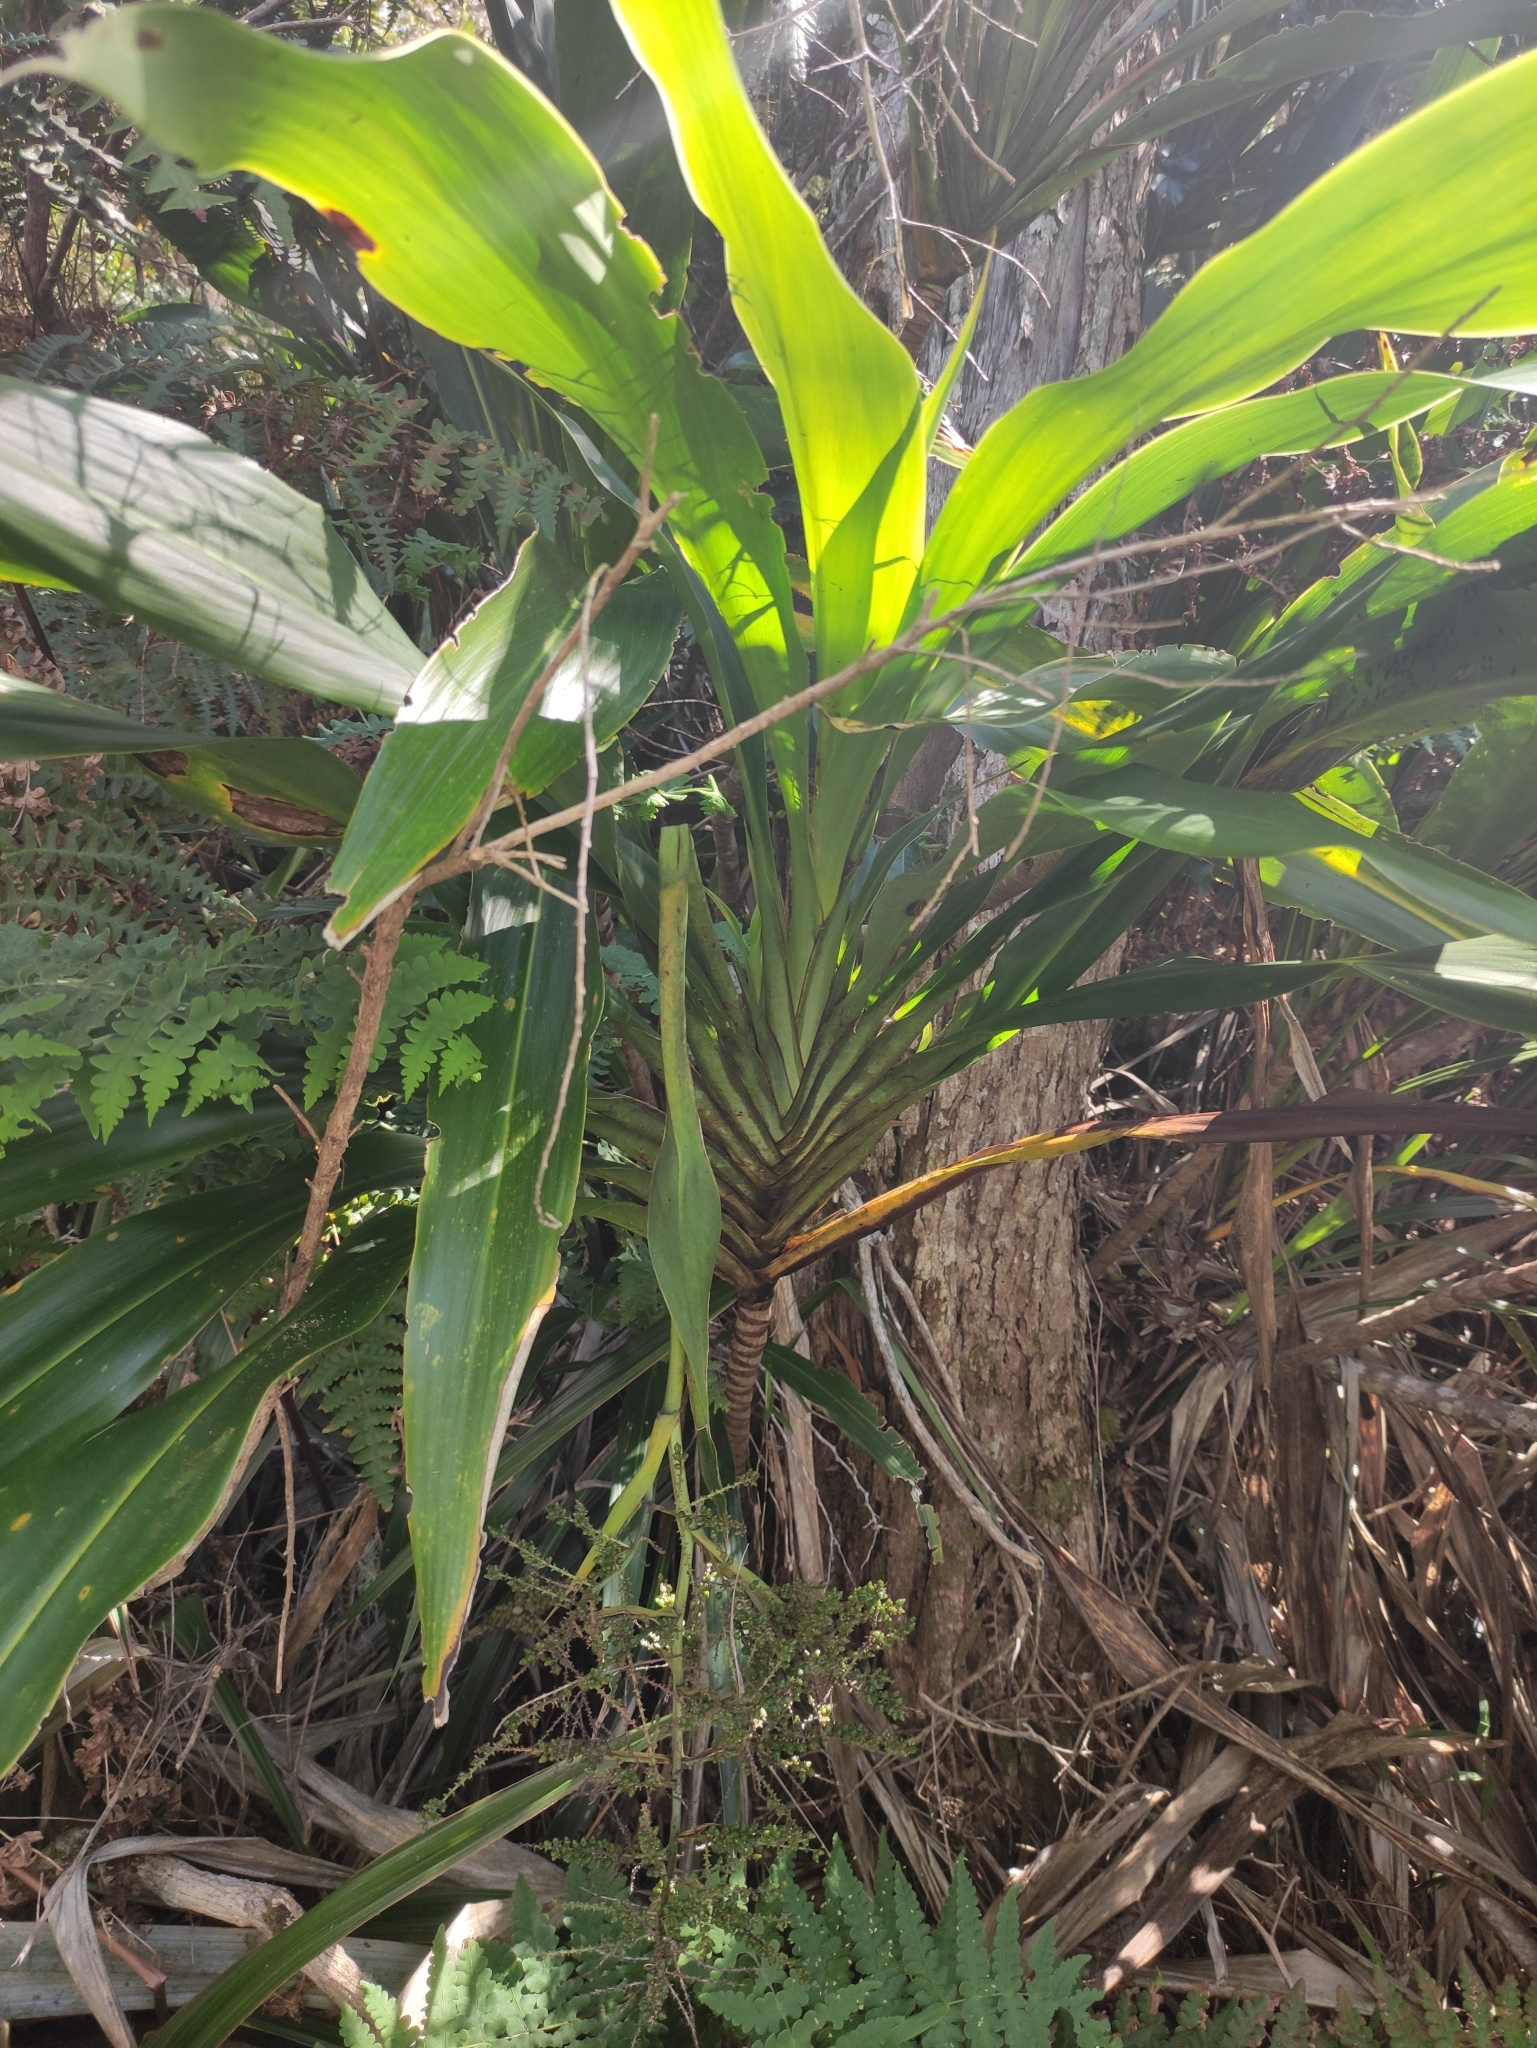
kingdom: Plantae
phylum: Tracheophyta
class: Liliopsida
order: Asparagales
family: Asparagaceae
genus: Cordyline
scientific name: Cordyline mauritiana
